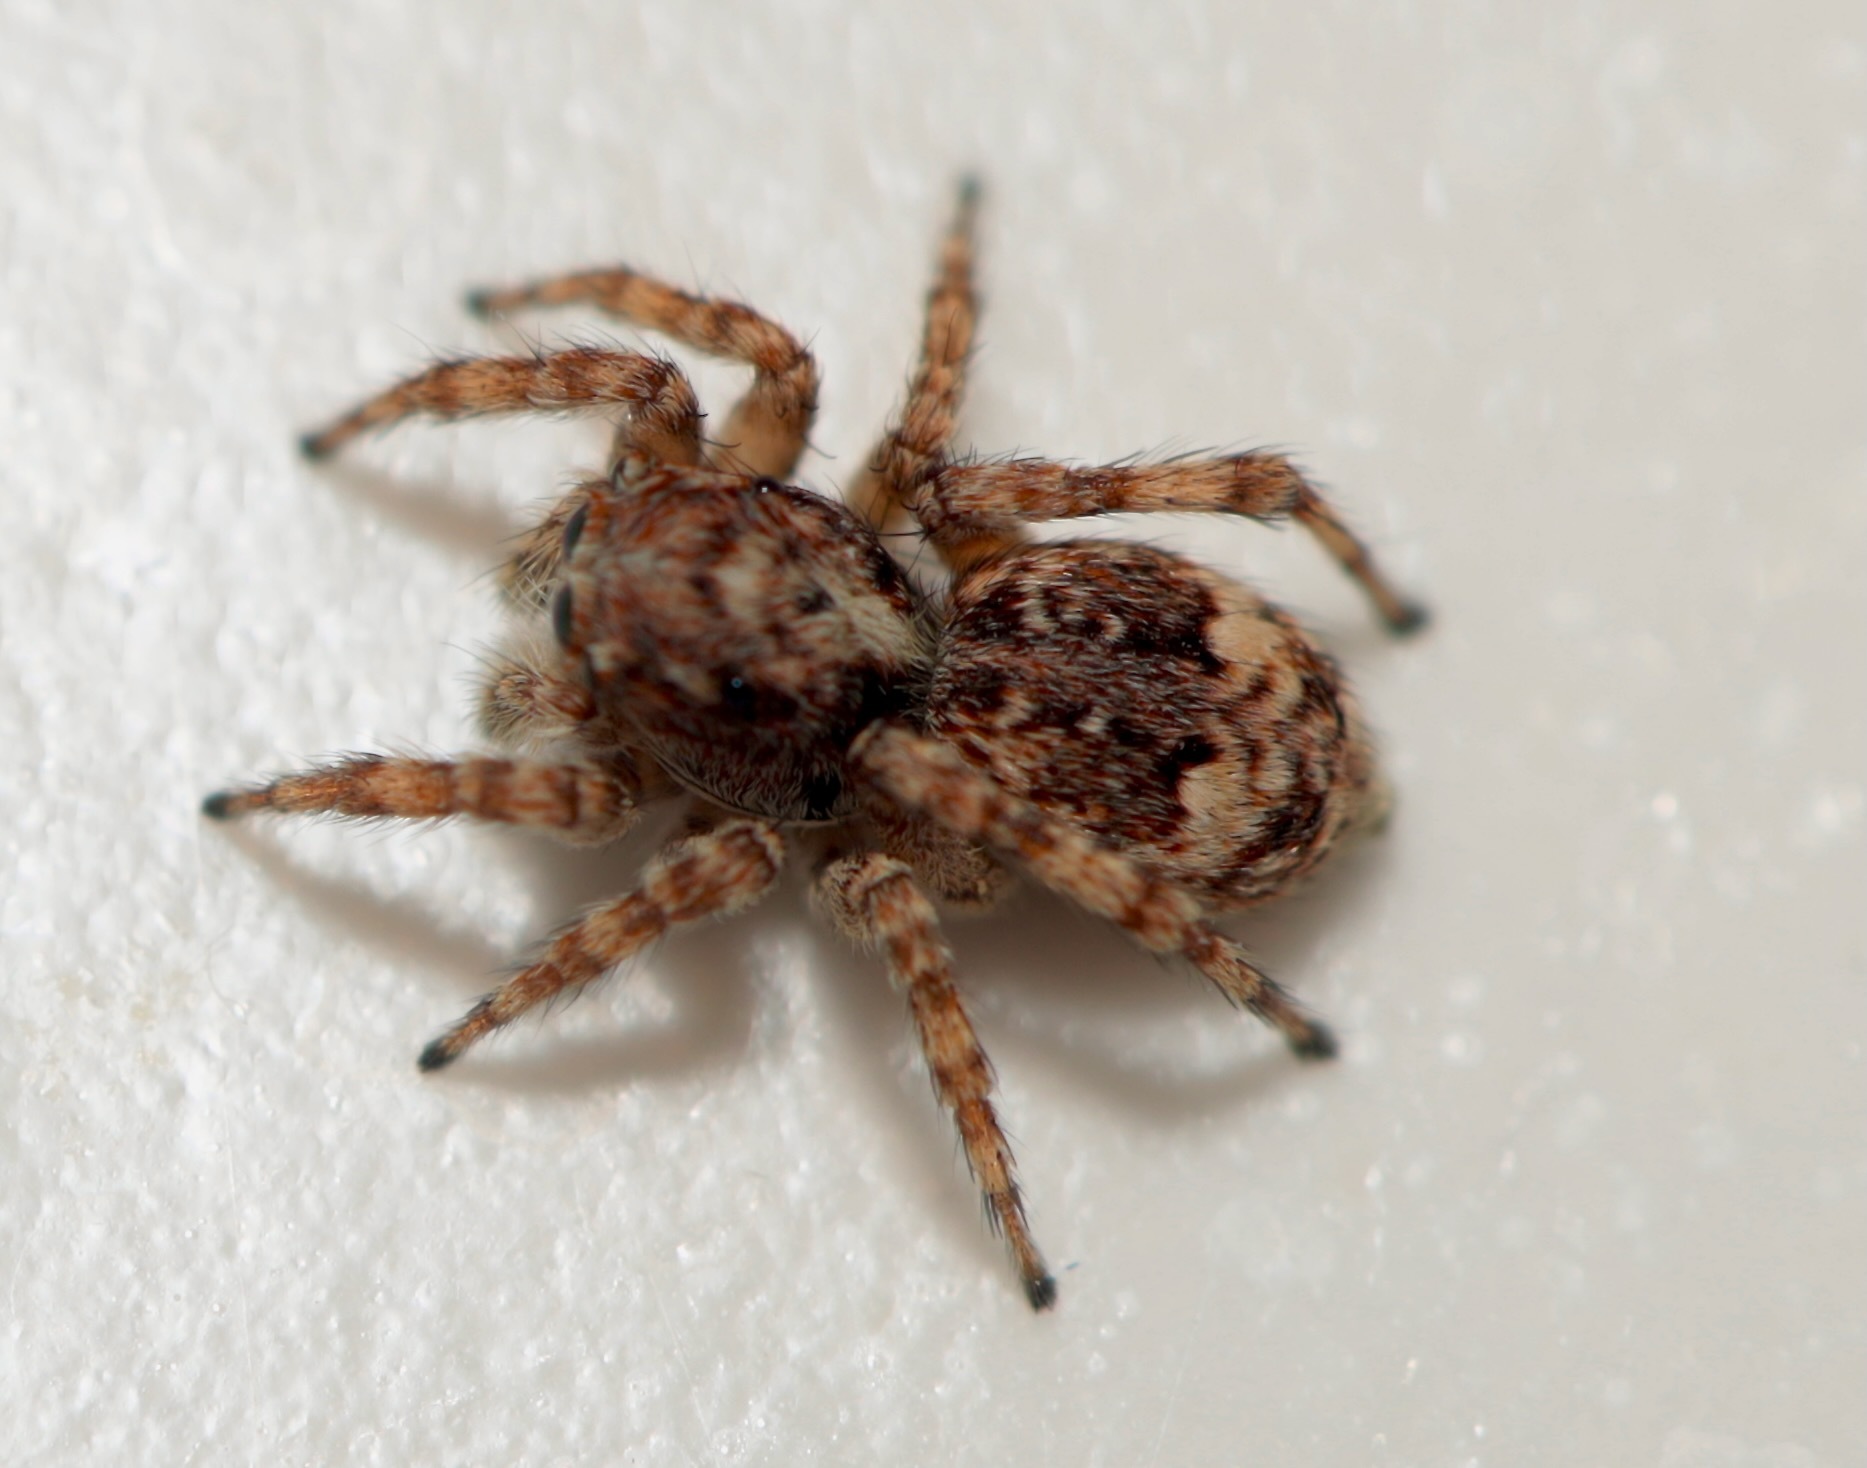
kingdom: Animalia
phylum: Arthropoda
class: Arachnida
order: Araneae
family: Salticidae
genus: Attulus
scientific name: Attulus fasciger
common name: Asiatic wall jumping spider
